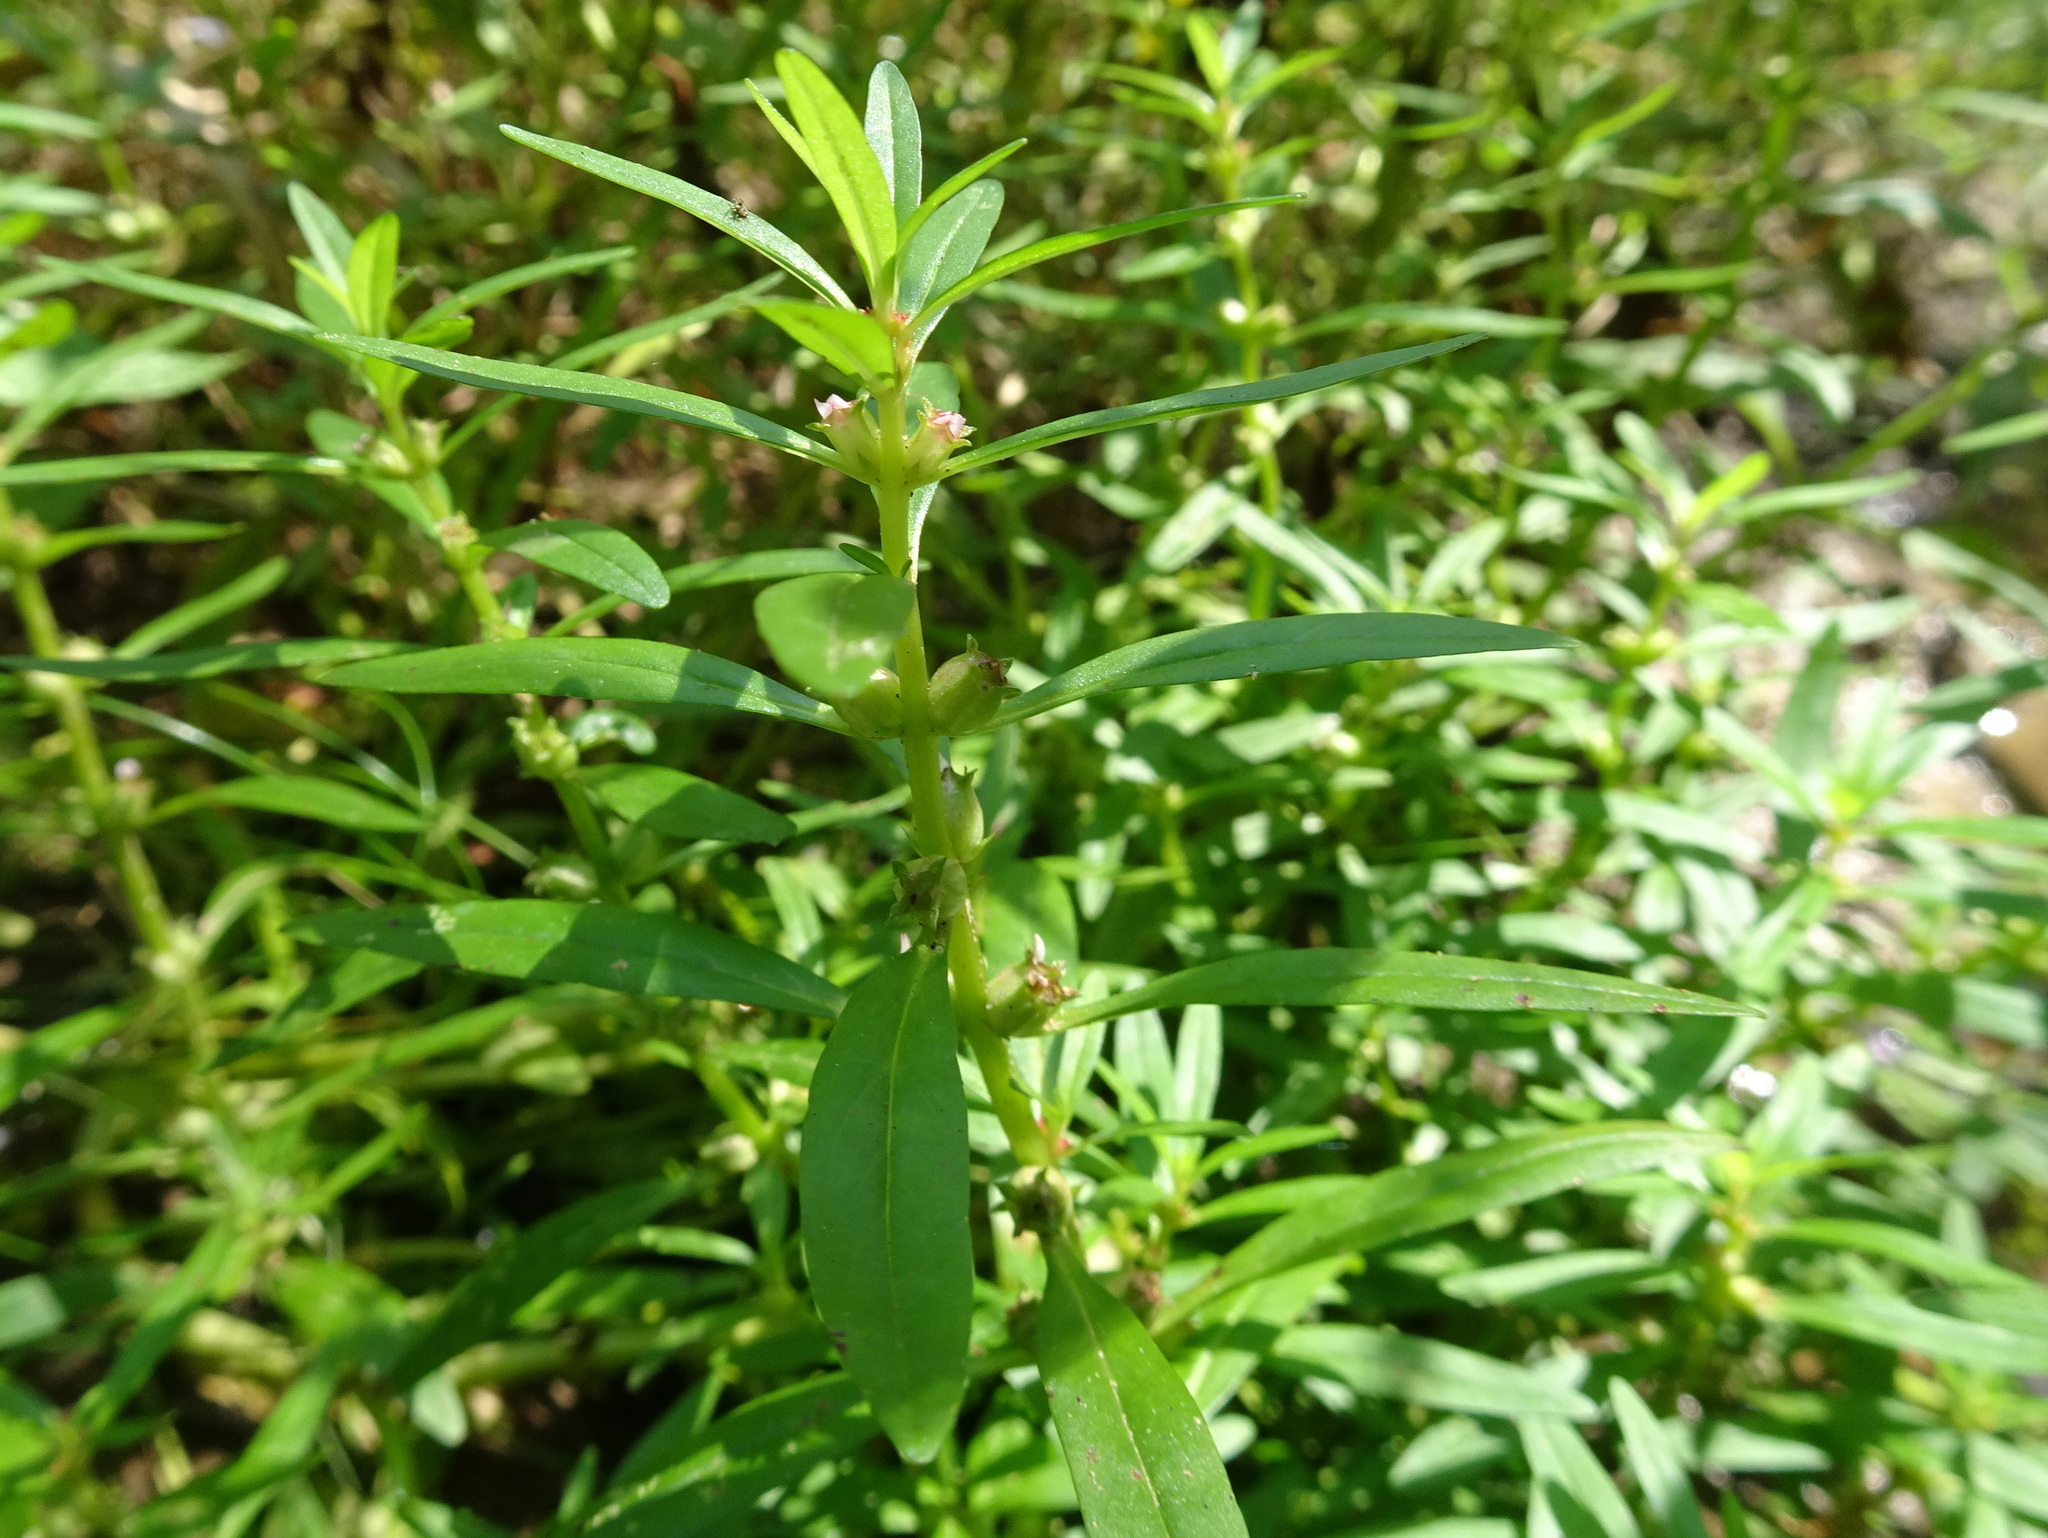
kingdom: Plantae
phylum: Tracheophyta
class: Magnoliopsida
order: Myrtales
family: Lythraceae
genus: Rotala
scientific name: Rotala ramosior
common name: Lowland rotala
